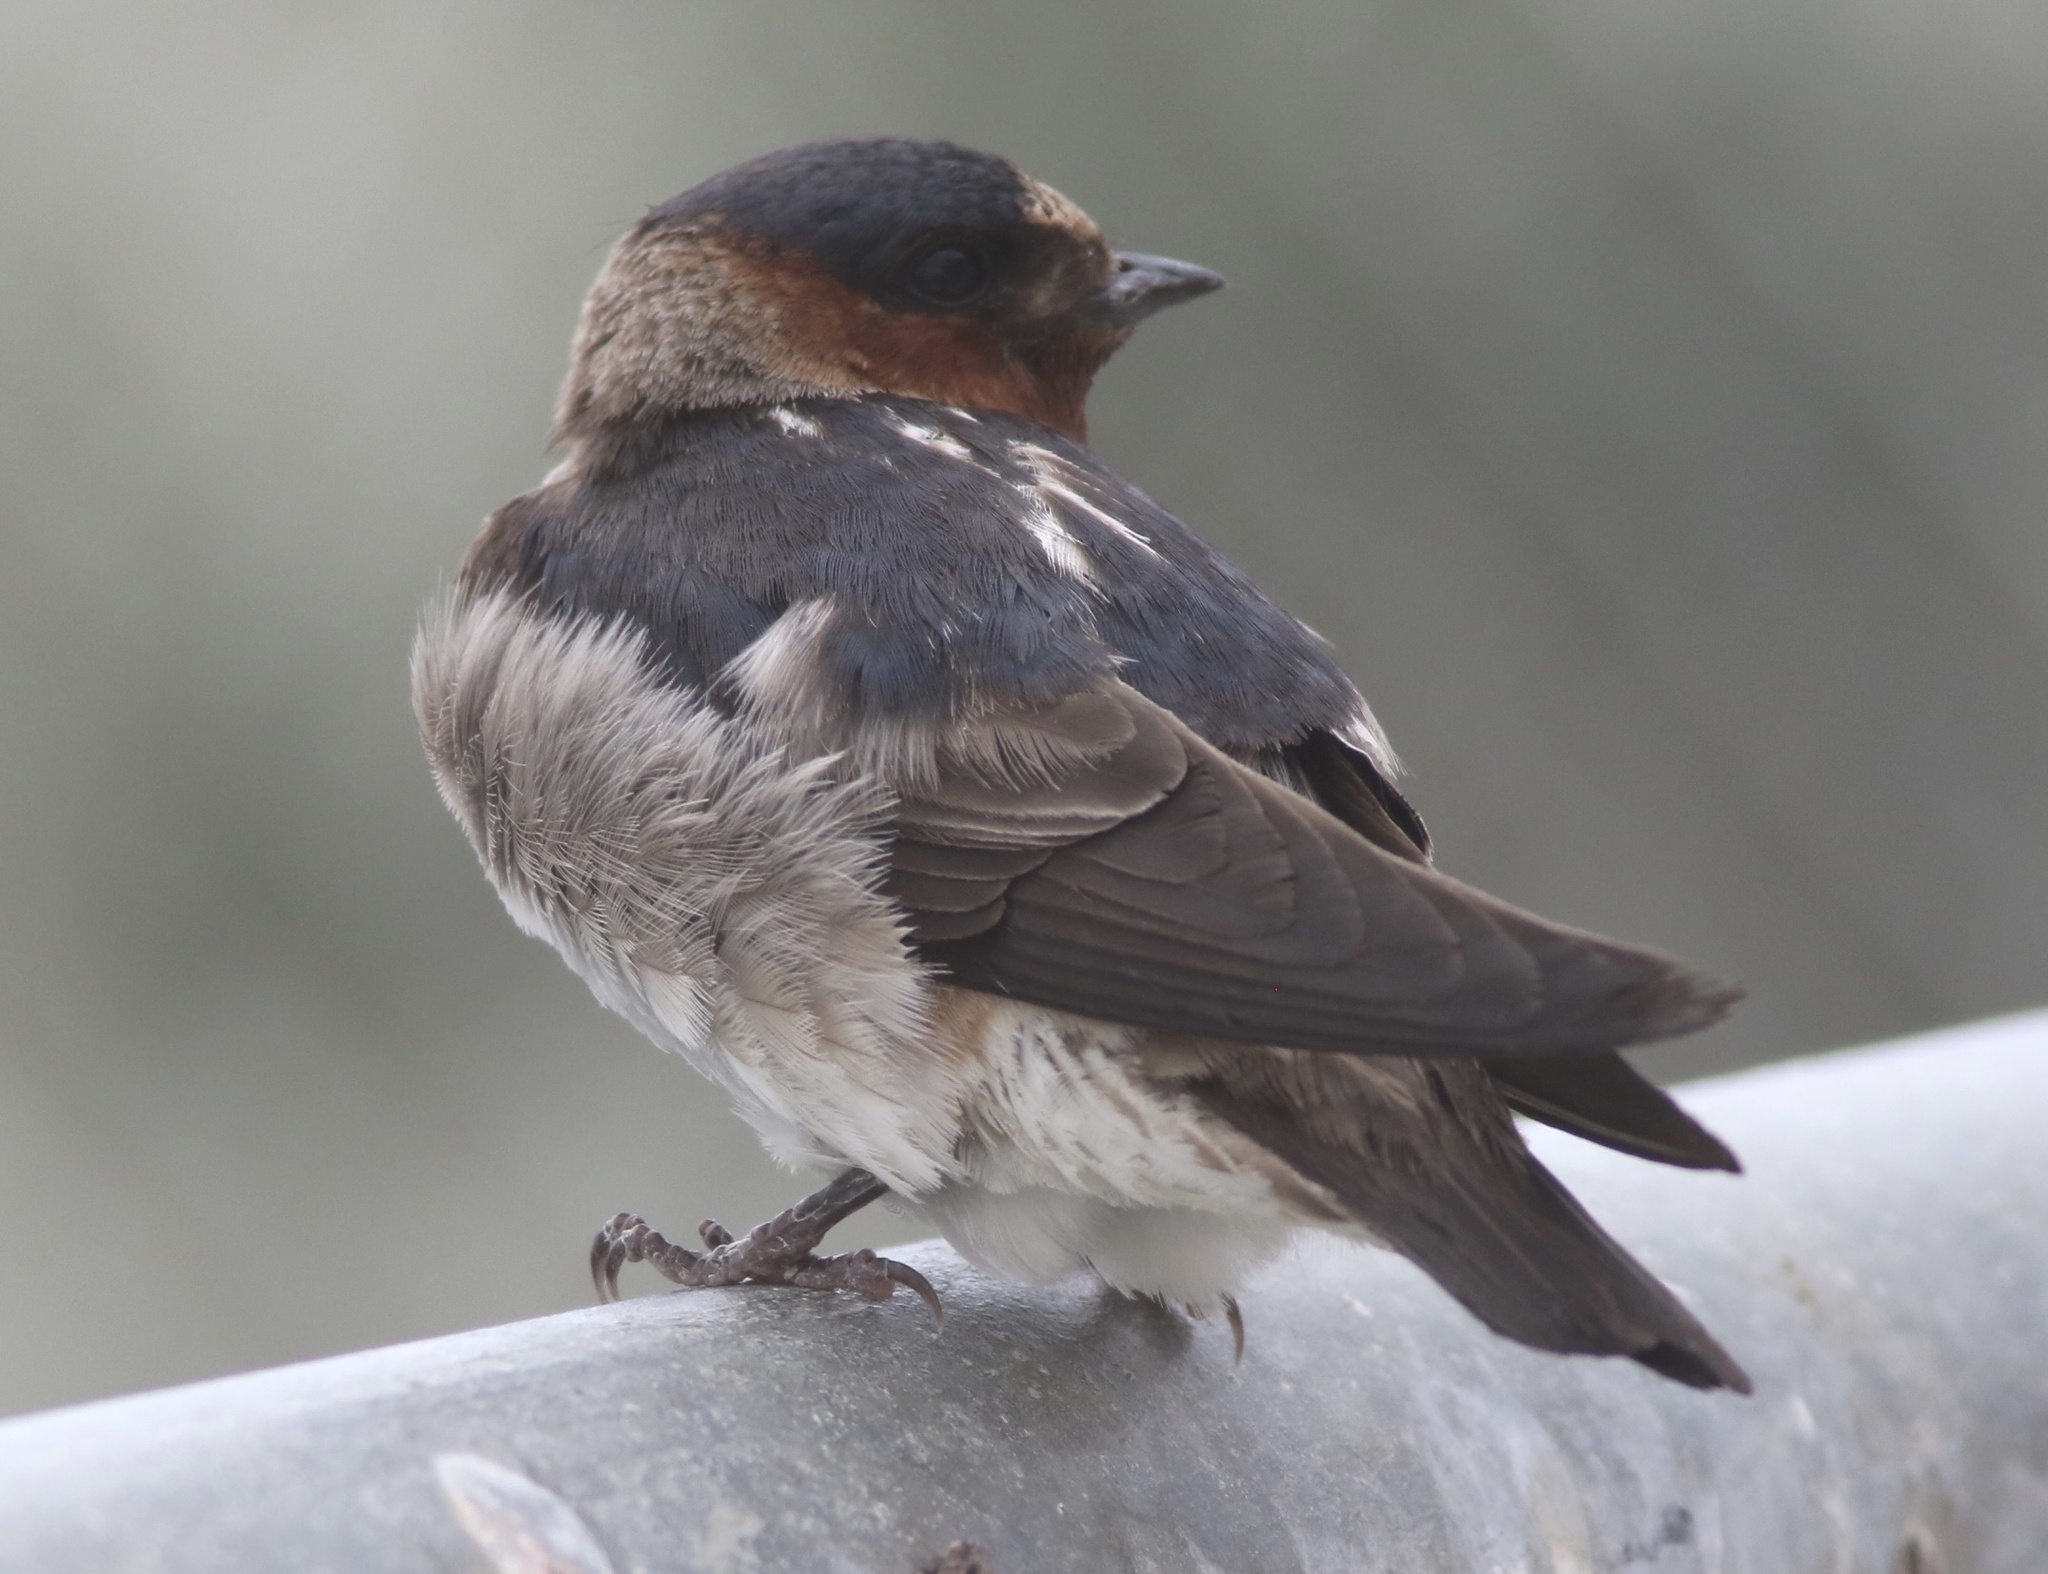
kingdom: Animalia
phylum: Chordata
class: Aves
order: Passeriformes
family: Hirundinidae
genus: Petrochelidon
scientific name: Petrochelidon pyrrhonota
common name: American cliff swallow
